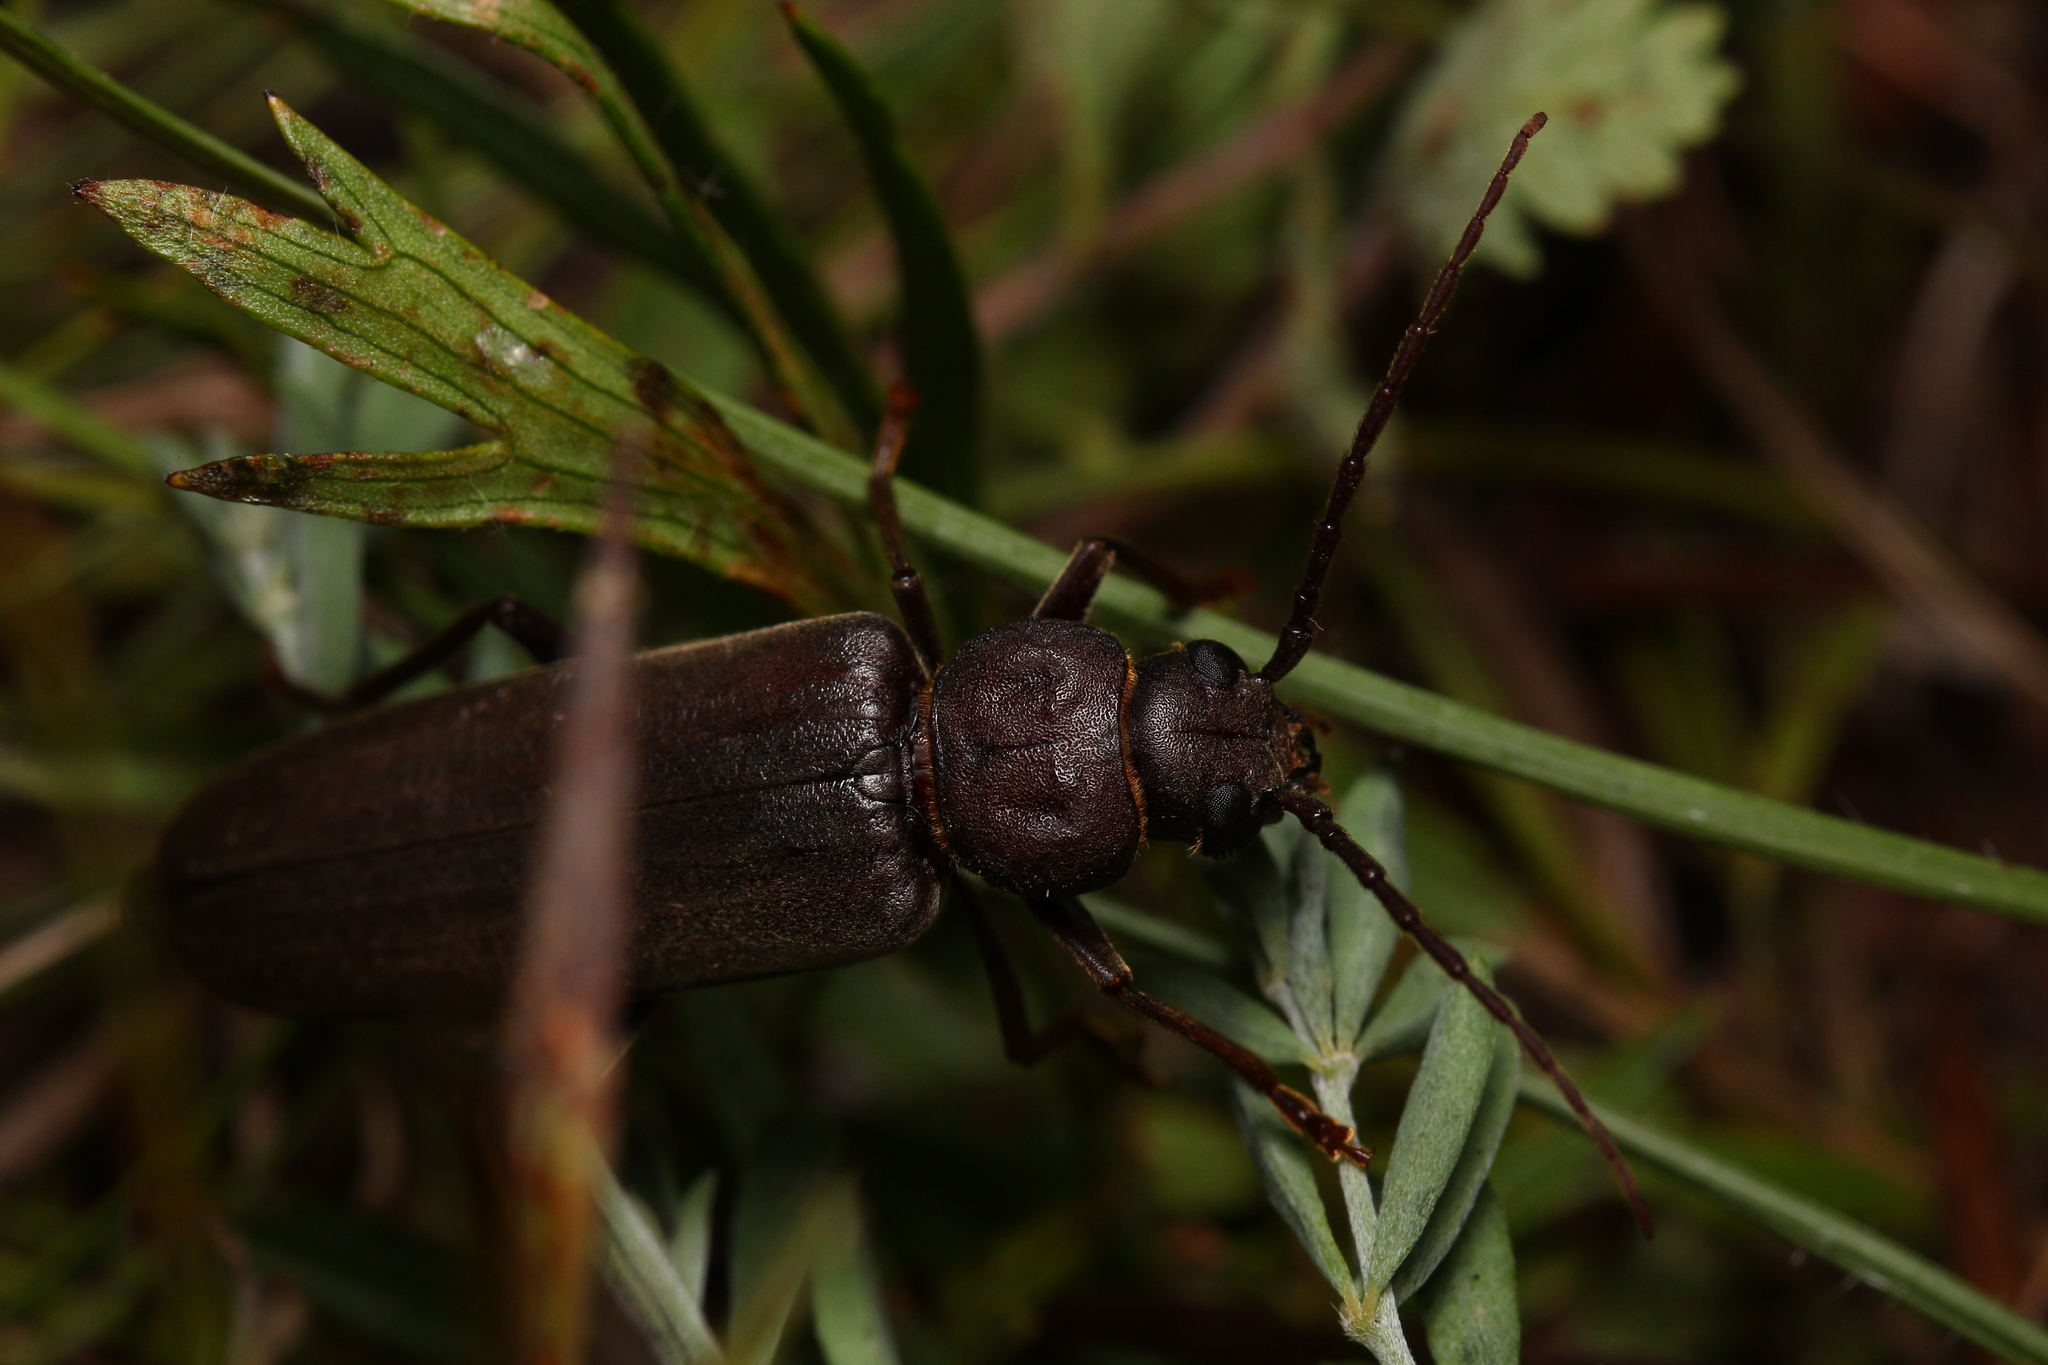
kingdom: Animalia
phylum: Arthropoda
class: Insecta
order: Coleoptera
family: Cerambycidae
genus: Arhopalus
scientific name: Arhopalus rusticus
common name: Rust pine borer
